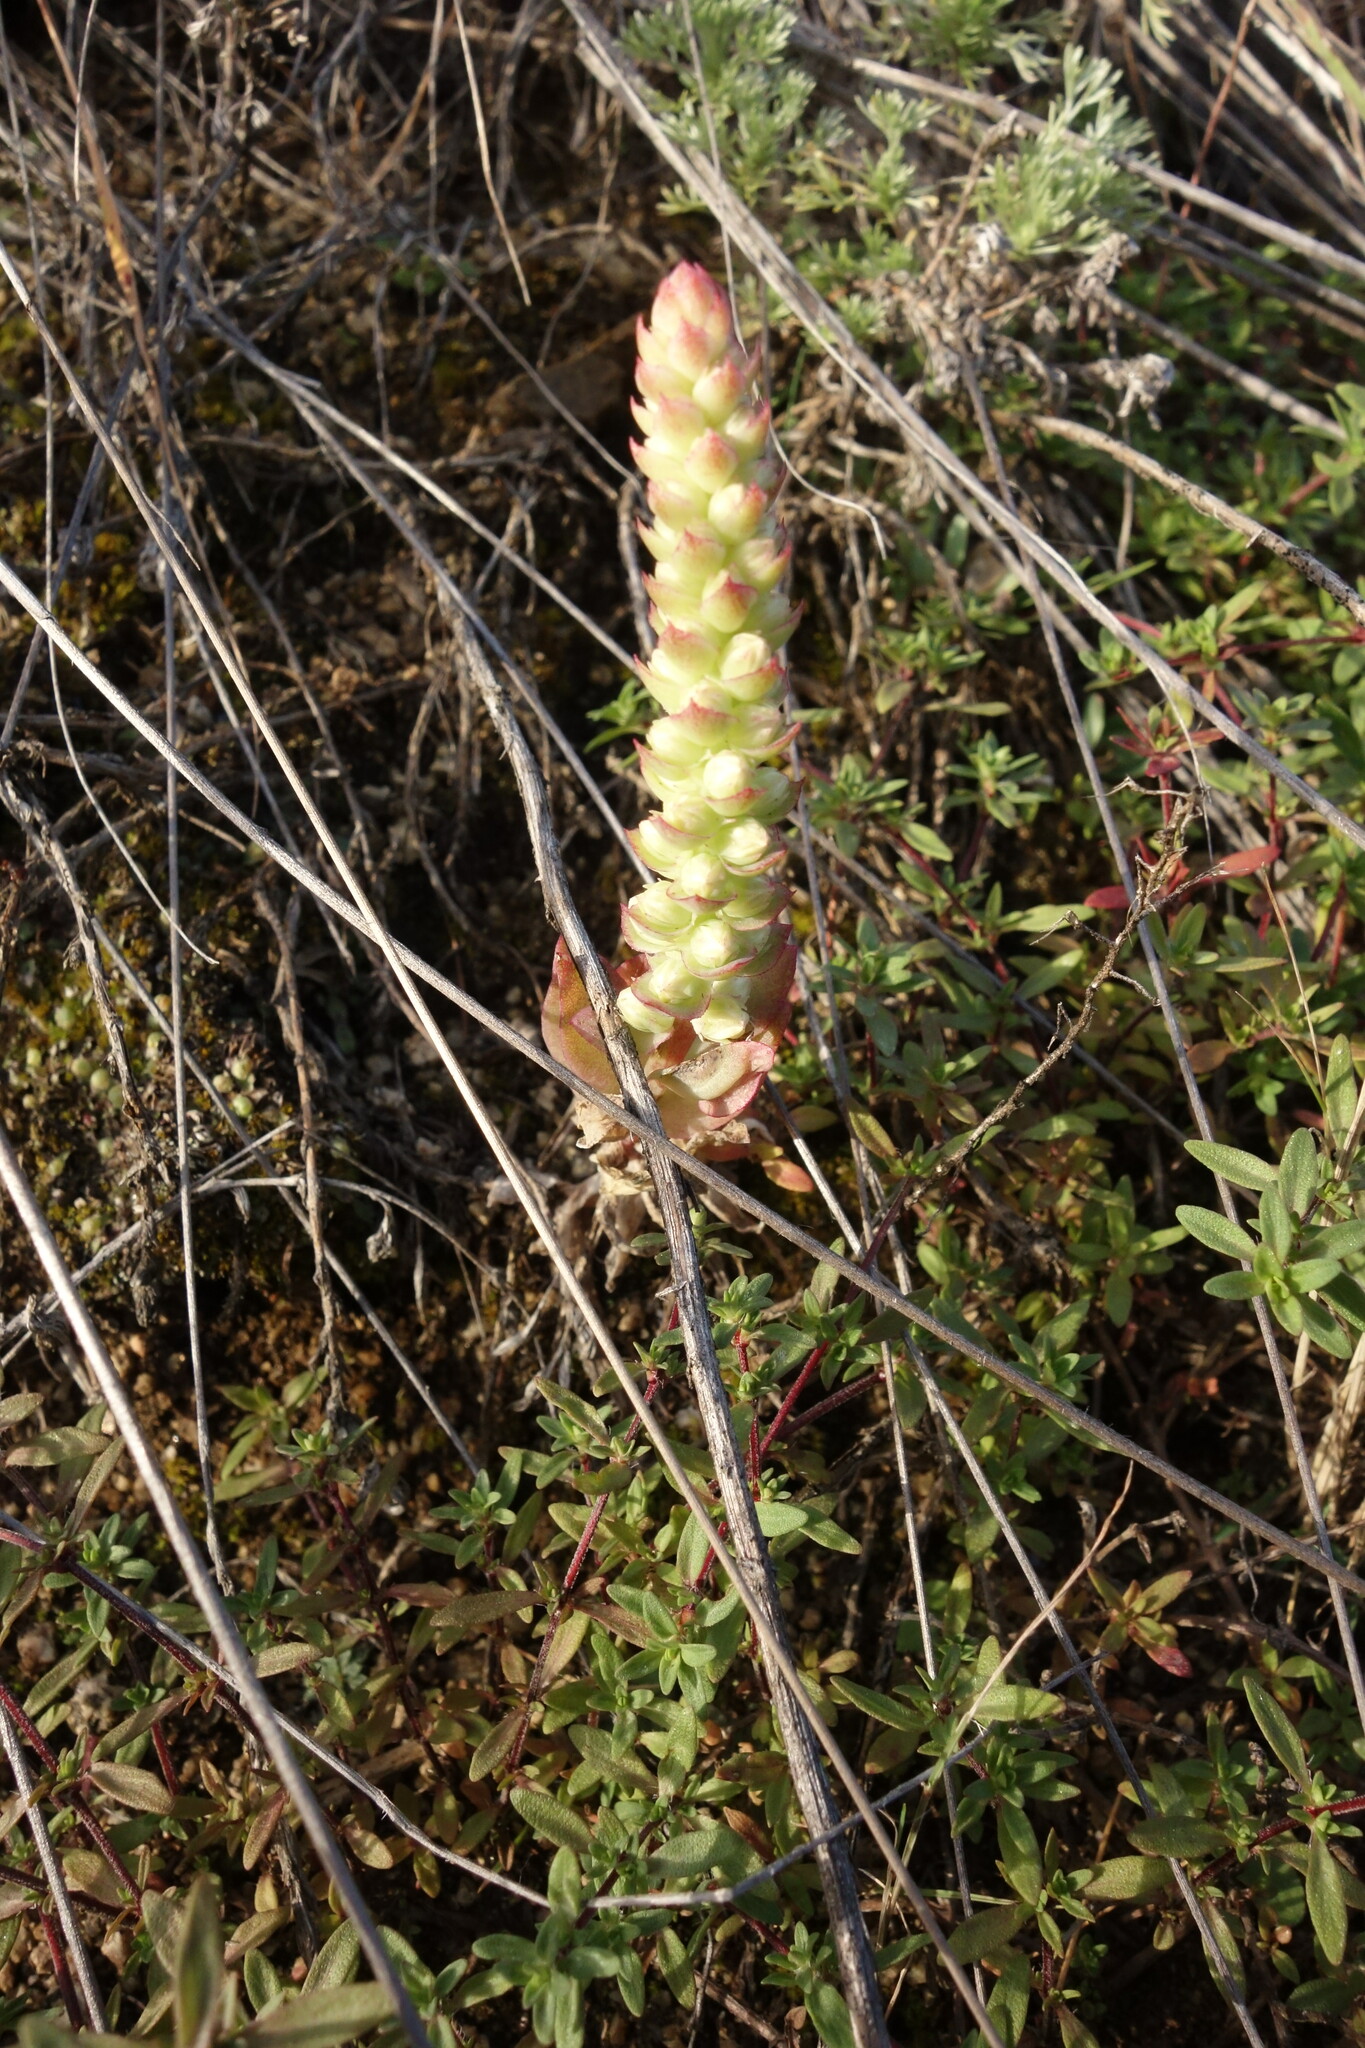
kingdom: Plantae
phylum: Tracheophyta
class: Magnoliopsida
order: Saxifragales
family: Crassulaceae
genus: Orostachys
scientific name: Orostachys malacophylla
